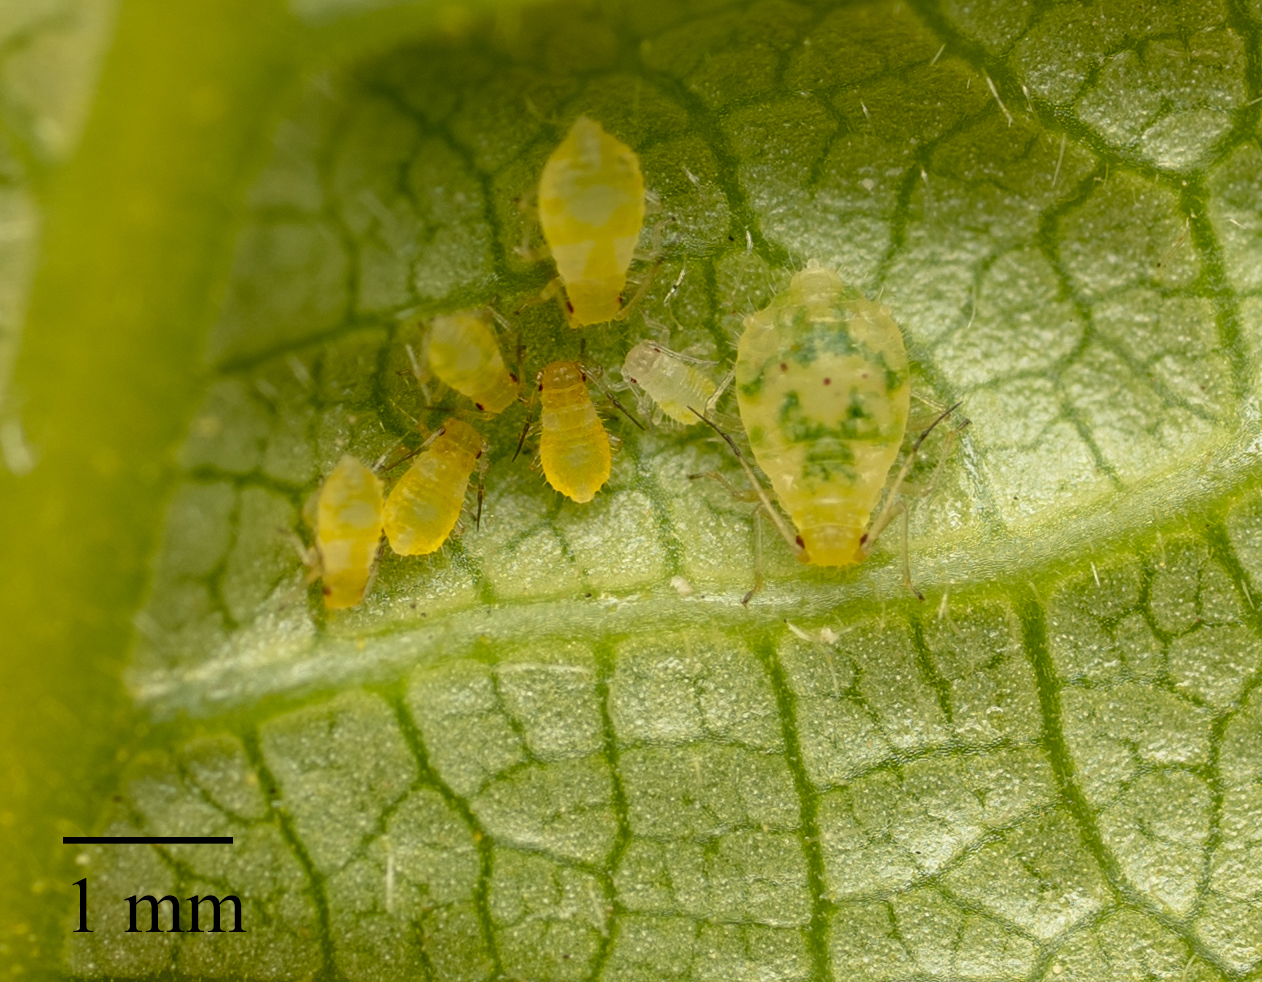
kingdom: Animalia
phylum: Arthropoda
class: Insecta
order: Hemiptera
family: Aphididae
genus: Chaitophorus
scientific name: Chaitophorus populialbae
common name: Aphid
